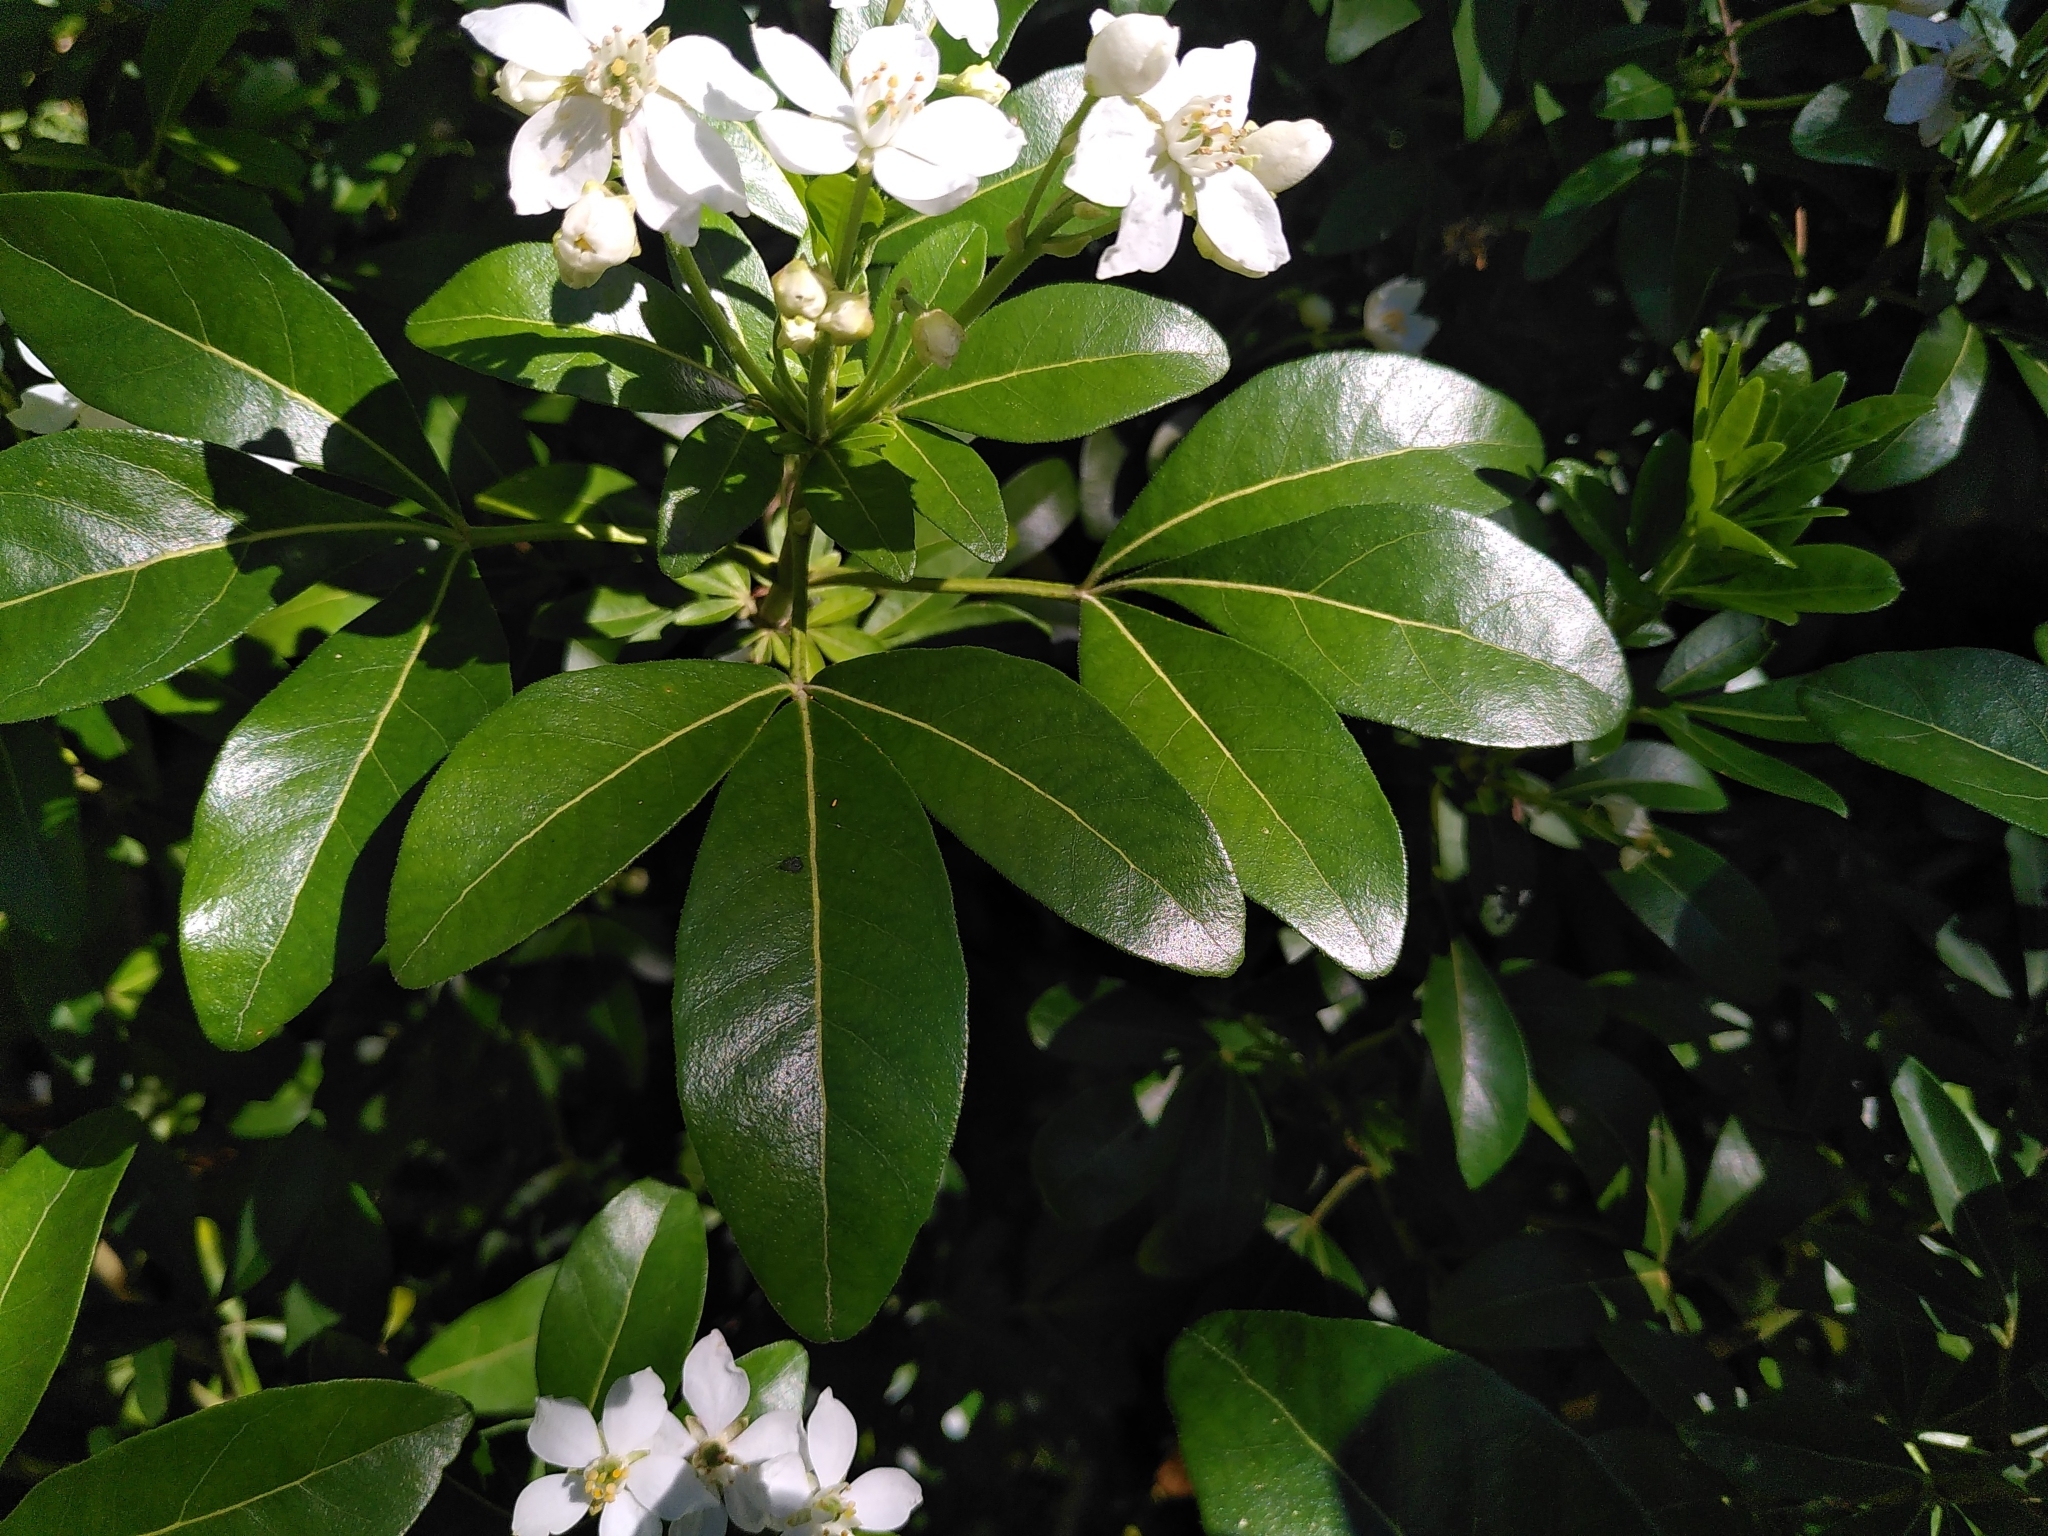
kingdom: Plantae
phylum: Tracheophyta
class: Magnoliopsida
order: Sapindales
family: Rutaceae
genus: Choisya
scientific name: Choisya ternata
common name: Mexican orange
